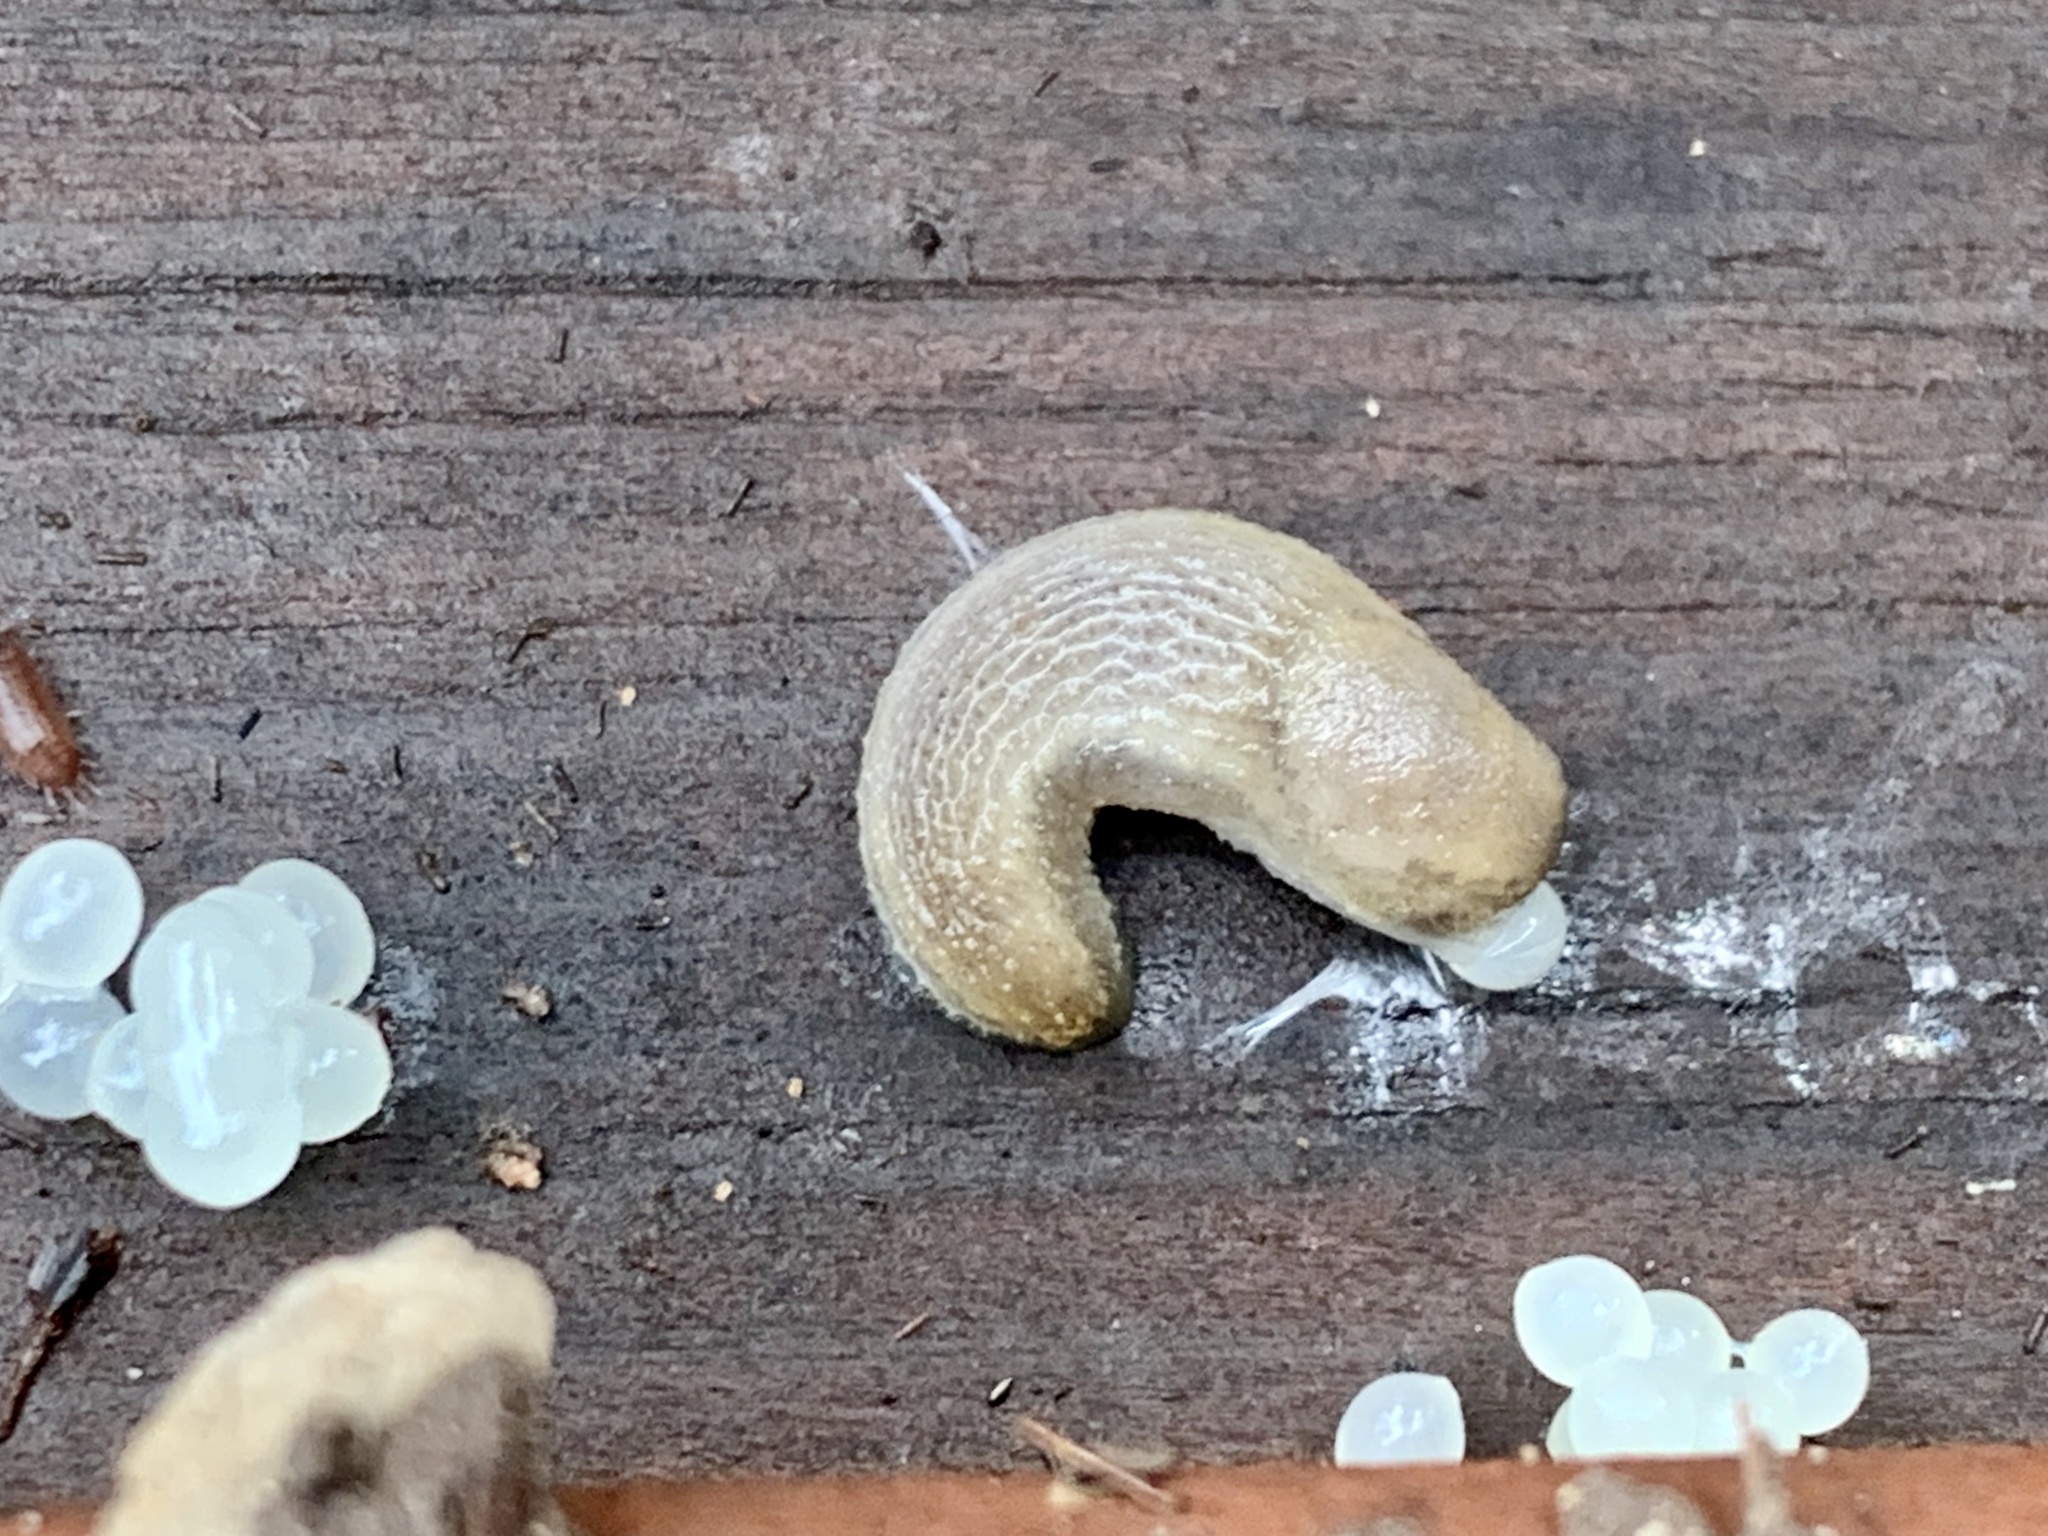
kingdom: Animalia
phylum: Mollusca
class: Gastropoda
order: Stylommatophora
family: Arionidae
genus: Arion
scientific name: Arion intermedius
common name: Hedgehog slug
